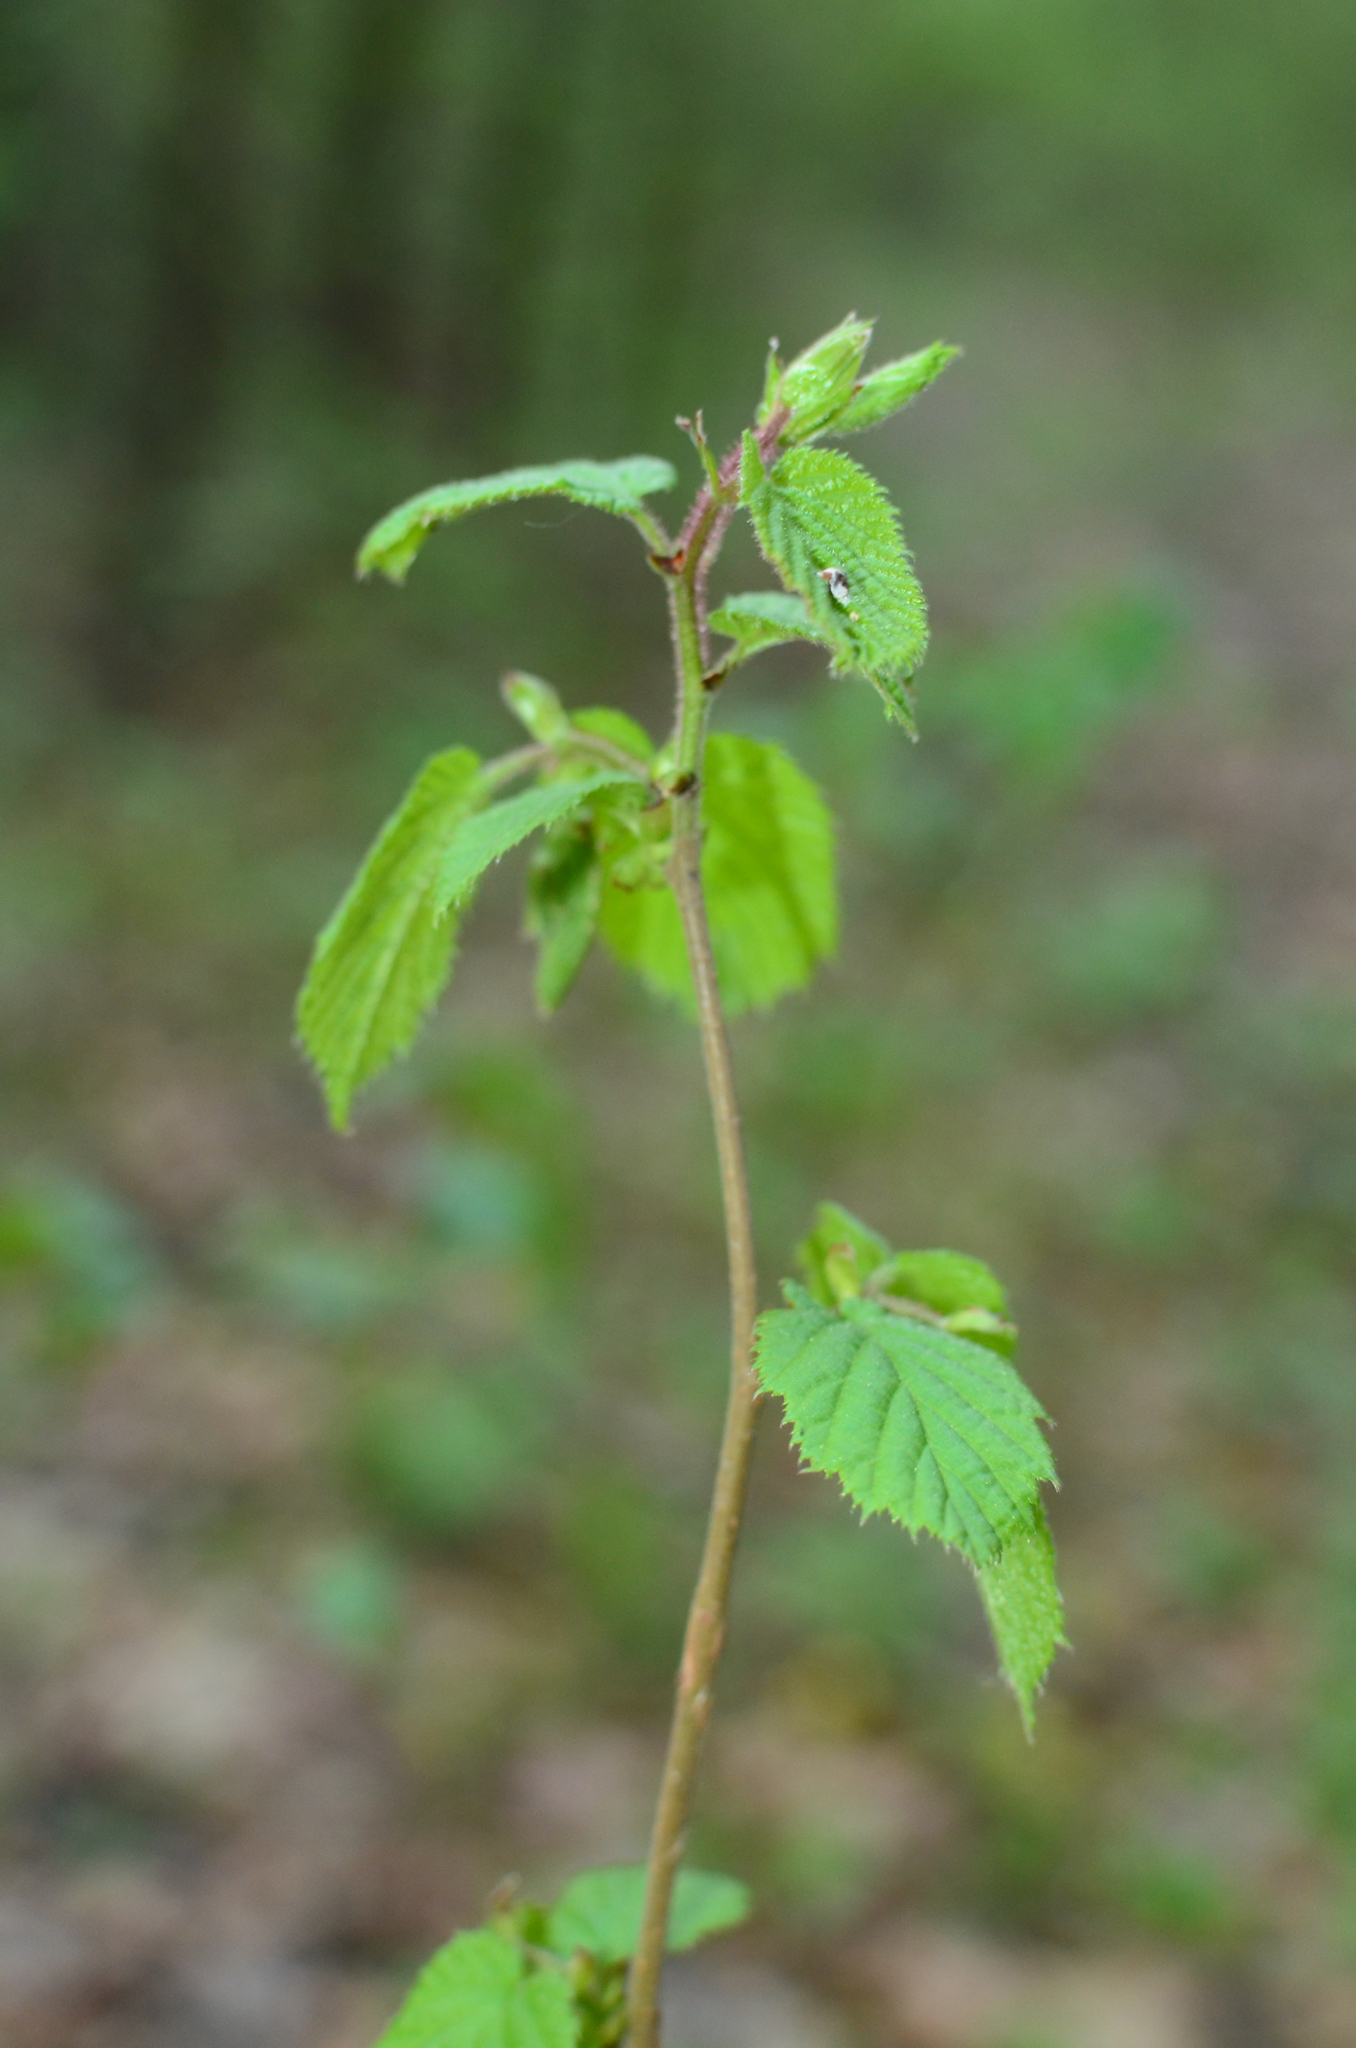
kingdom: Plantae
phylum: Tracheophyta
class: Magnoliopsida
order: Fagales
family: Betulaceae
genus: Corylus
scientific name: Corylus avellana
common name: European hazel
